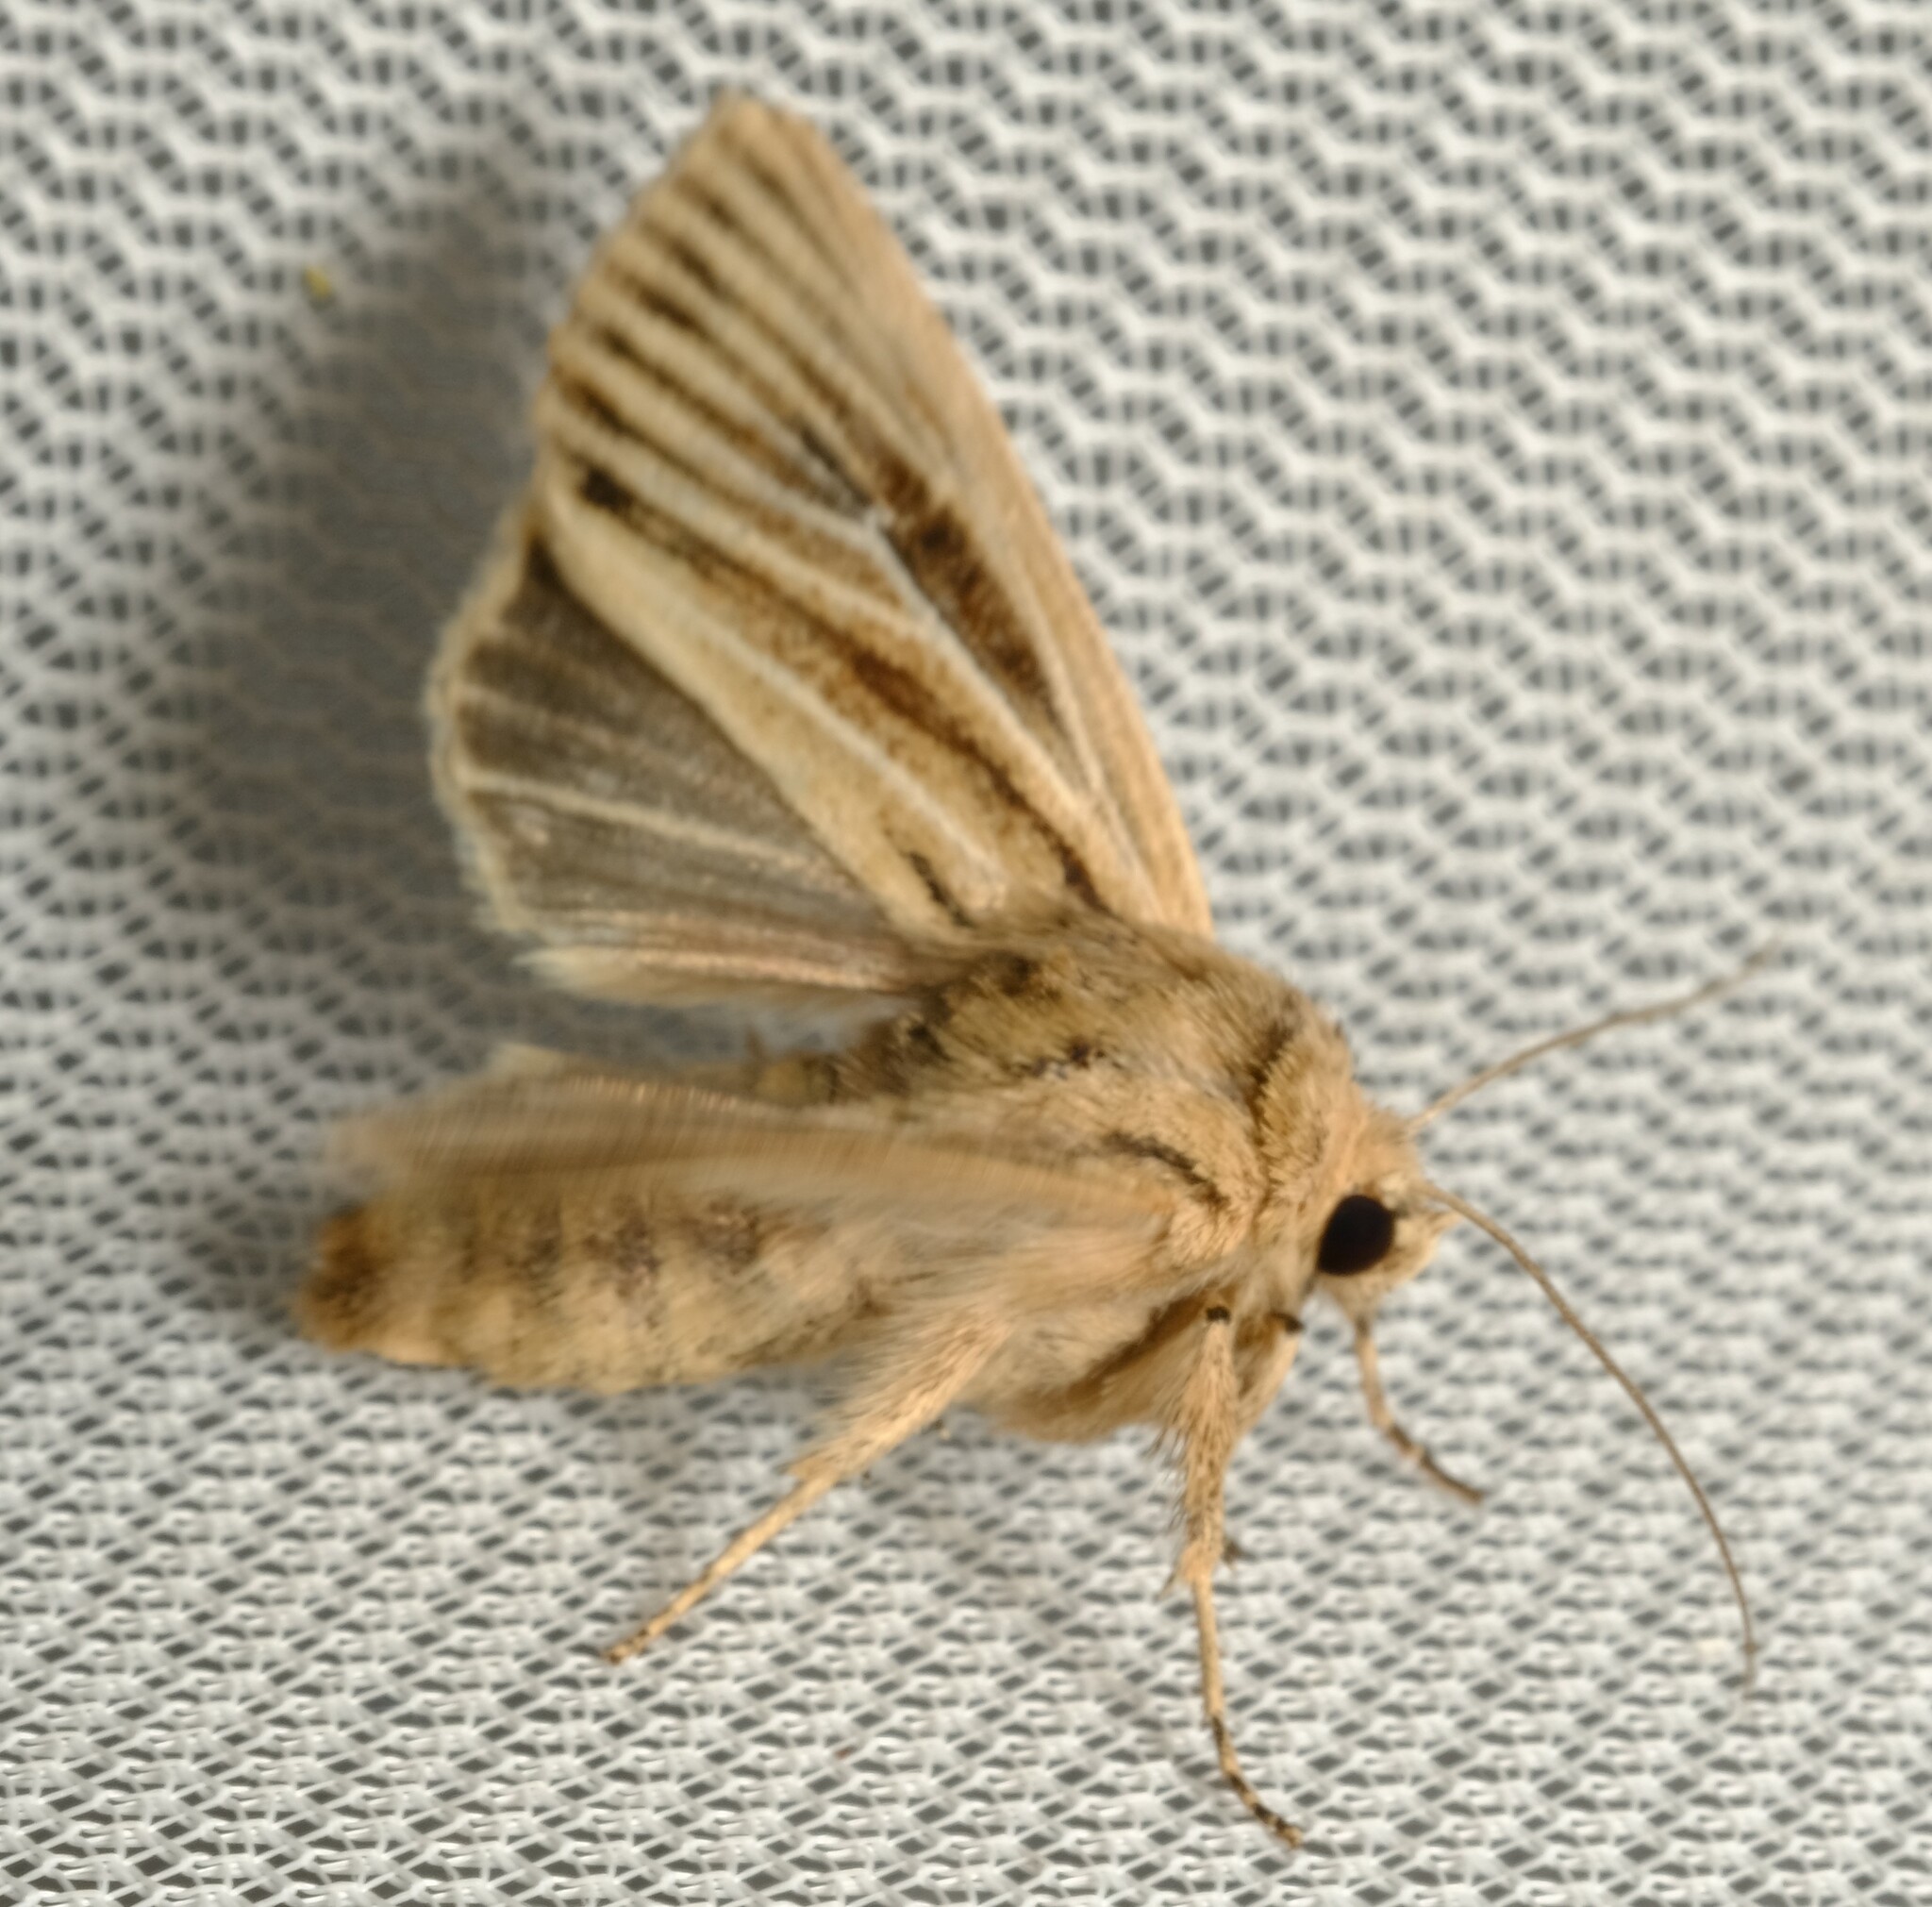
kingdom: Animalia
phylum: Arthropoda
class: Insecta
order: Lepidoptera
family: Noctuidae
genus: Leucania
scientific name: Leucania obusta
